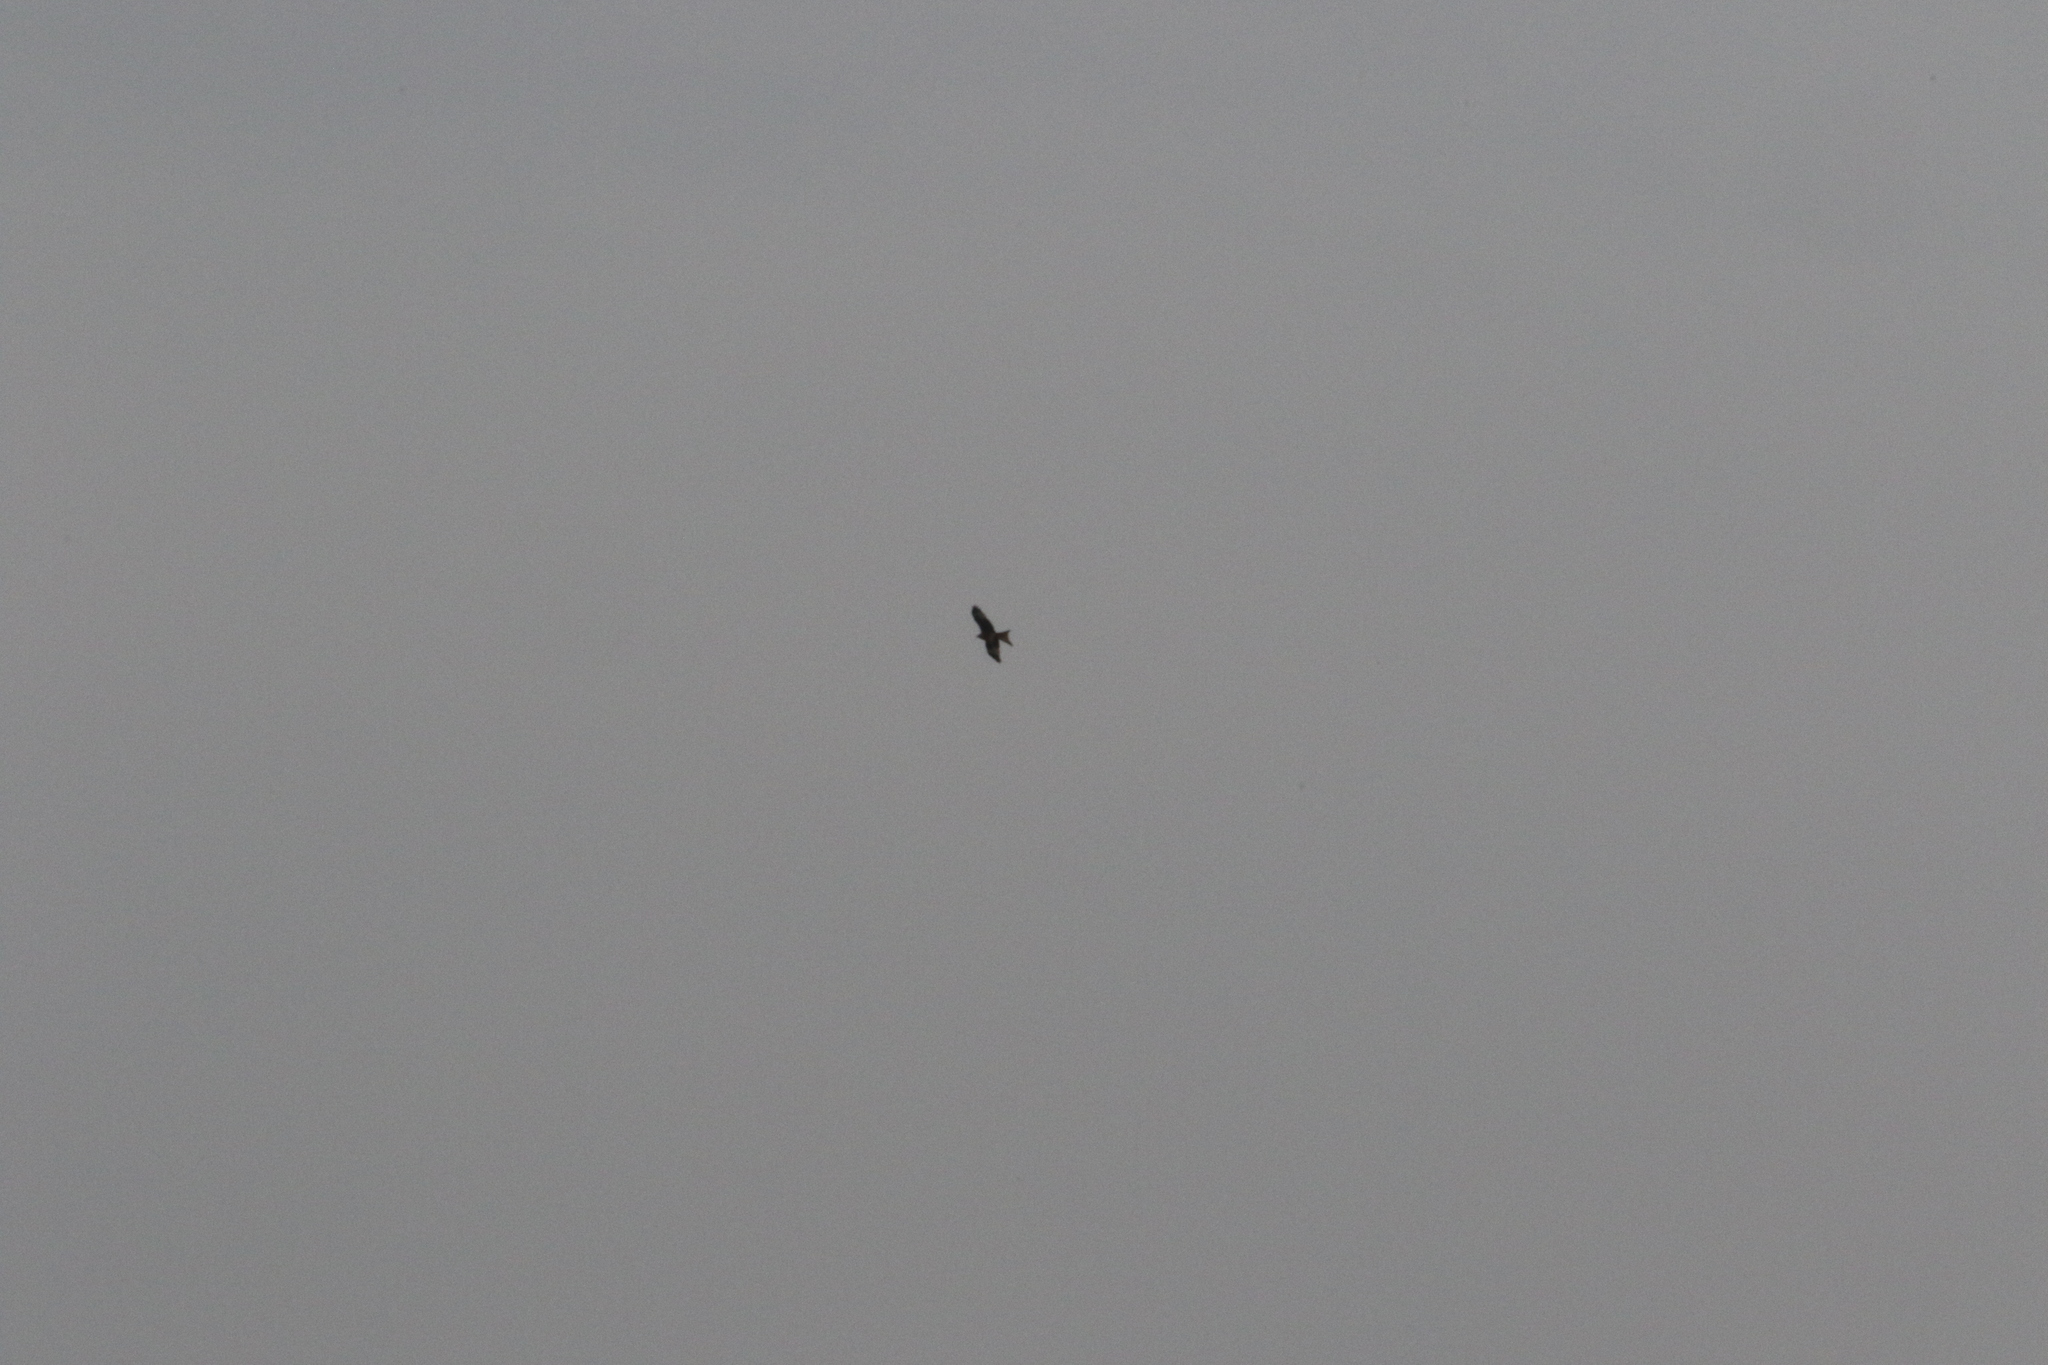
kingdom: Animalia
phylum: Chordata
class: Aves
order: Accipitriformes
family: Accipitridae
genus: Milvus
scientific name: Milvus milvus
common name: Red kite
